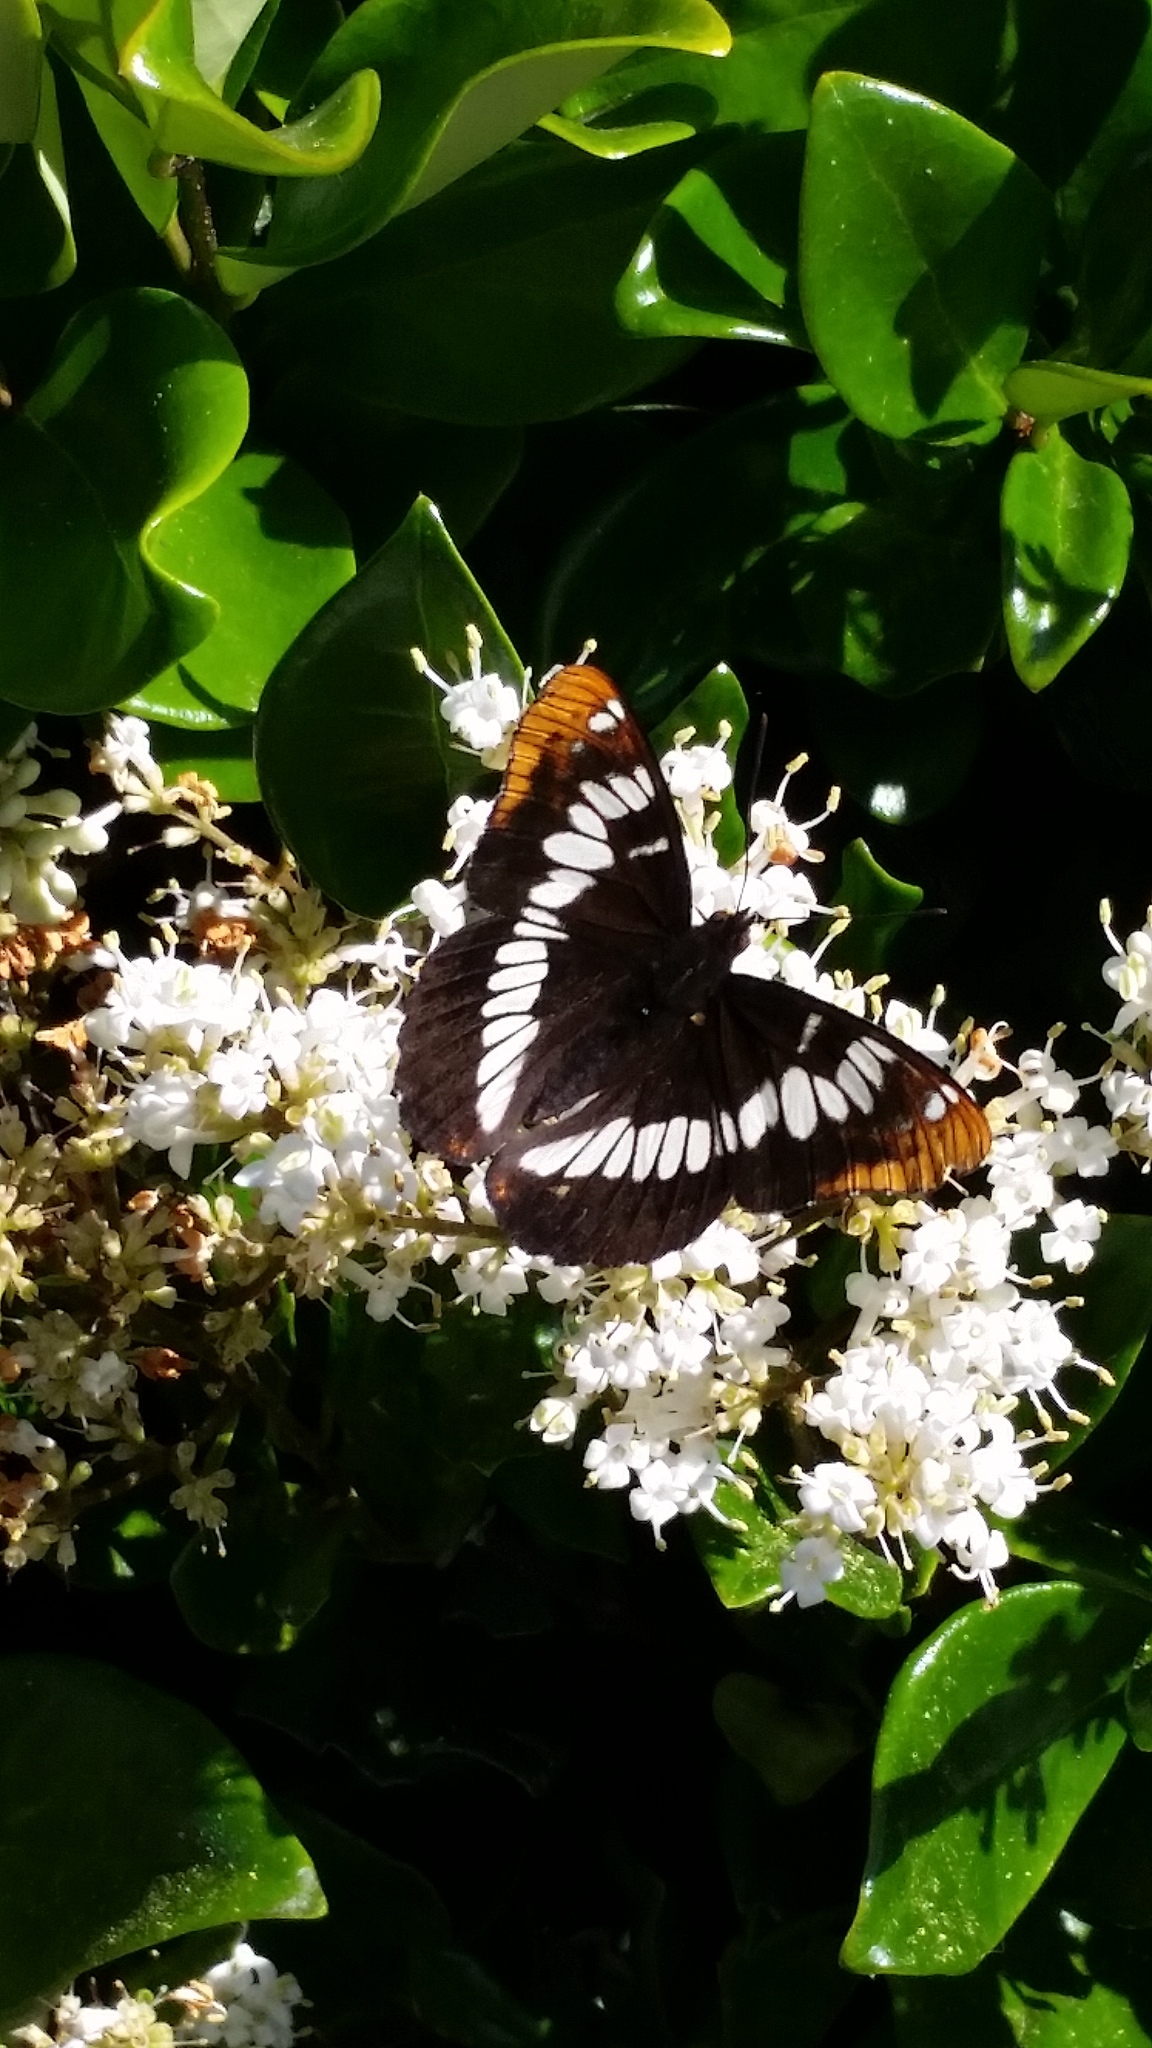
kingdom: Animalia
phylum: Arthropoda
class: Insecta
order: Lepidoptera
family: Nymphalidae
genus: Limenitis
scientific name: Limenitis lorquini
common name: Lorquin's admiral
